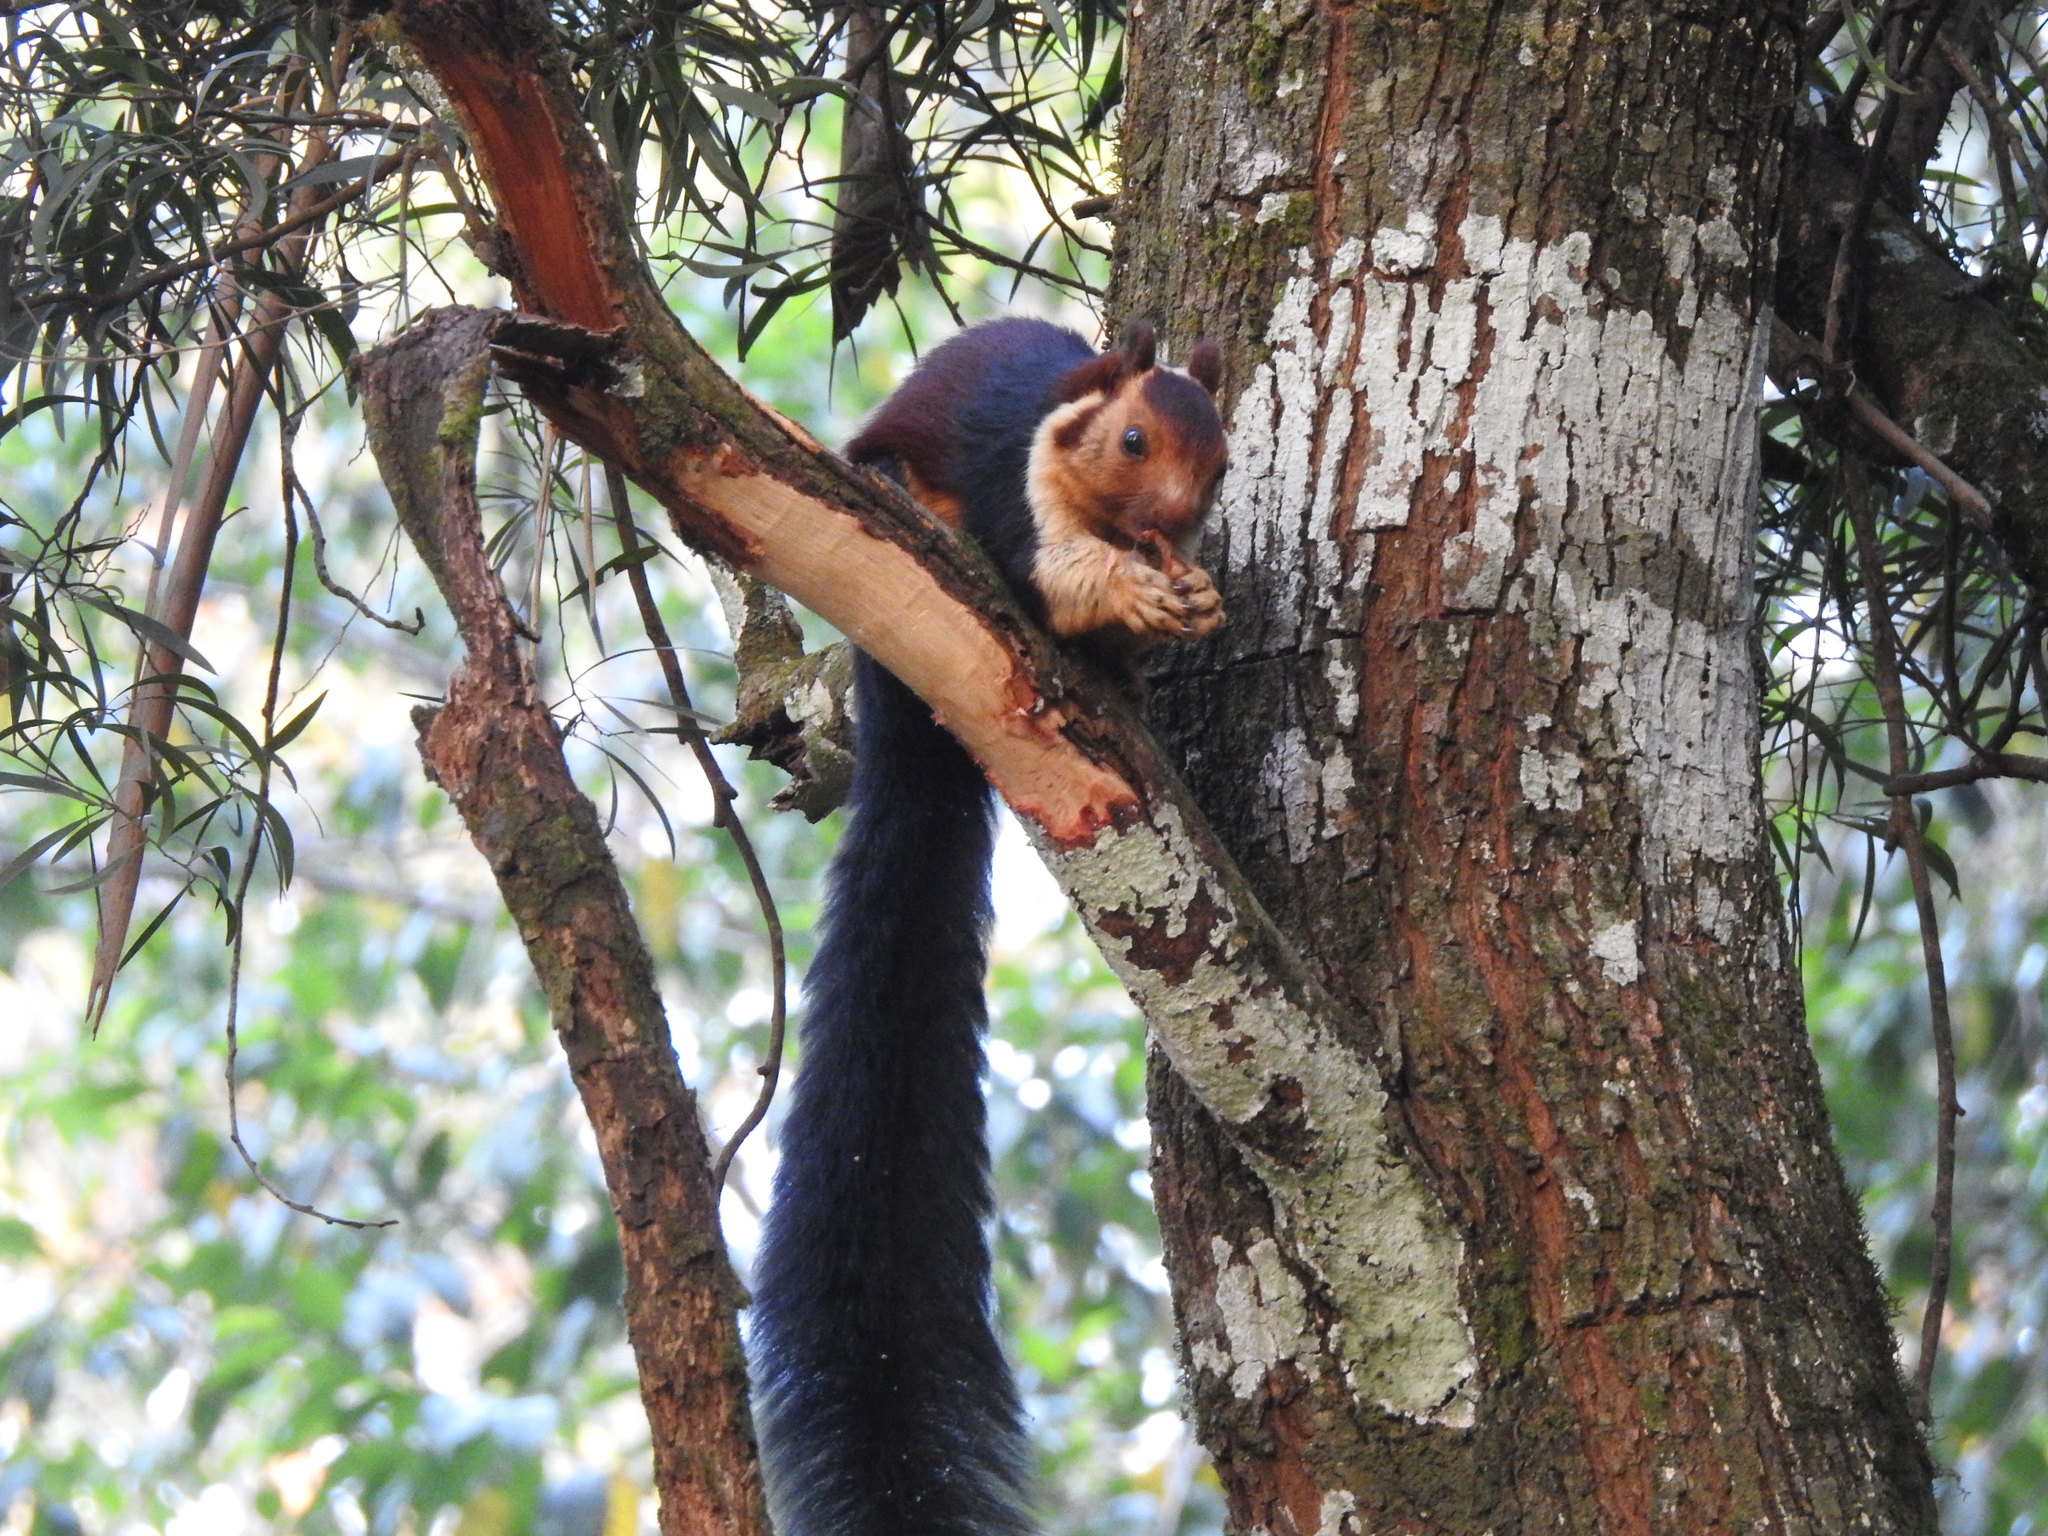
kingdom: Animalia
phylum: Chordata
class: Mammalia
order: Rodentia
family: Sciuridae
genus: Ratufa
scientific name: Ratufa indica
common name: Indian giant squirrel
